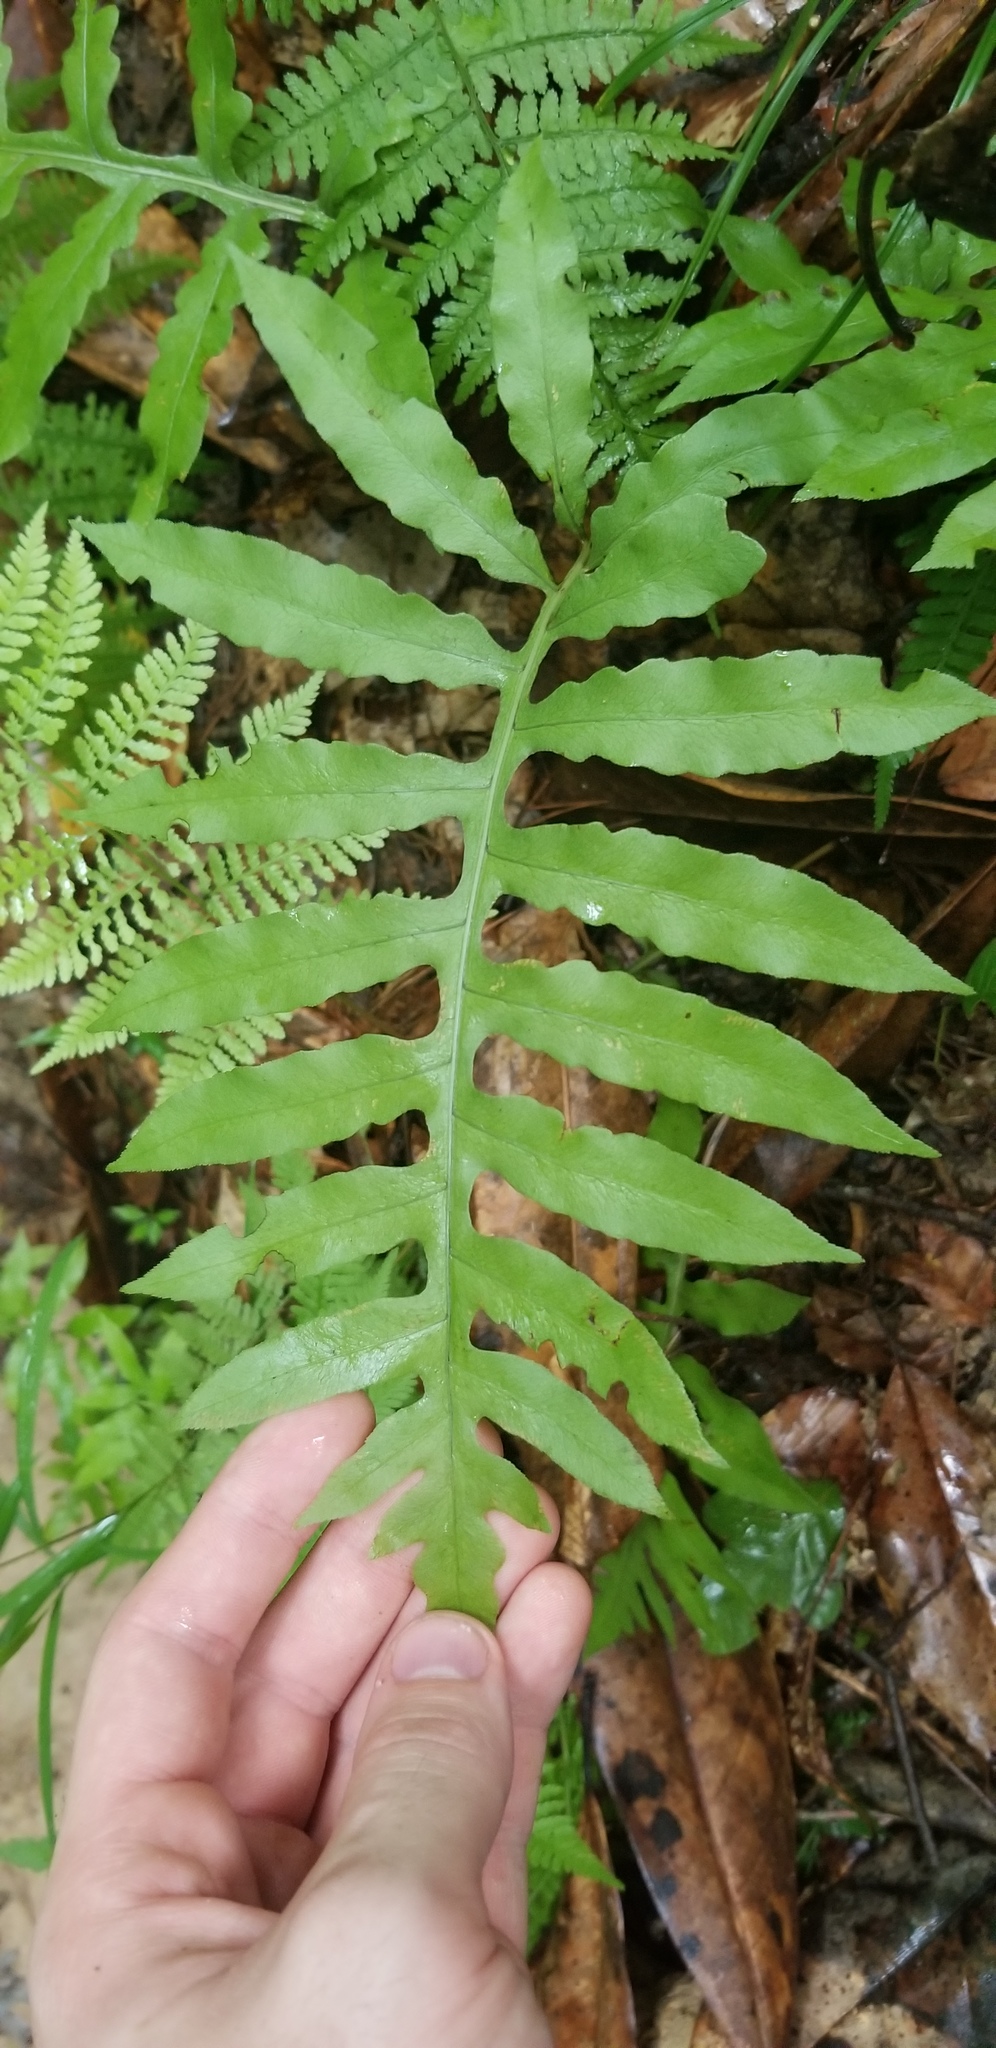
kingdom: Plantae
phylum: Tracheophyta
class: Polypodiopsida
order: Polypodiales
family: Blechnaceae
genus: Lorinseria
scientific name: Lorinseria areolata
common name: Dwarf chain fern
